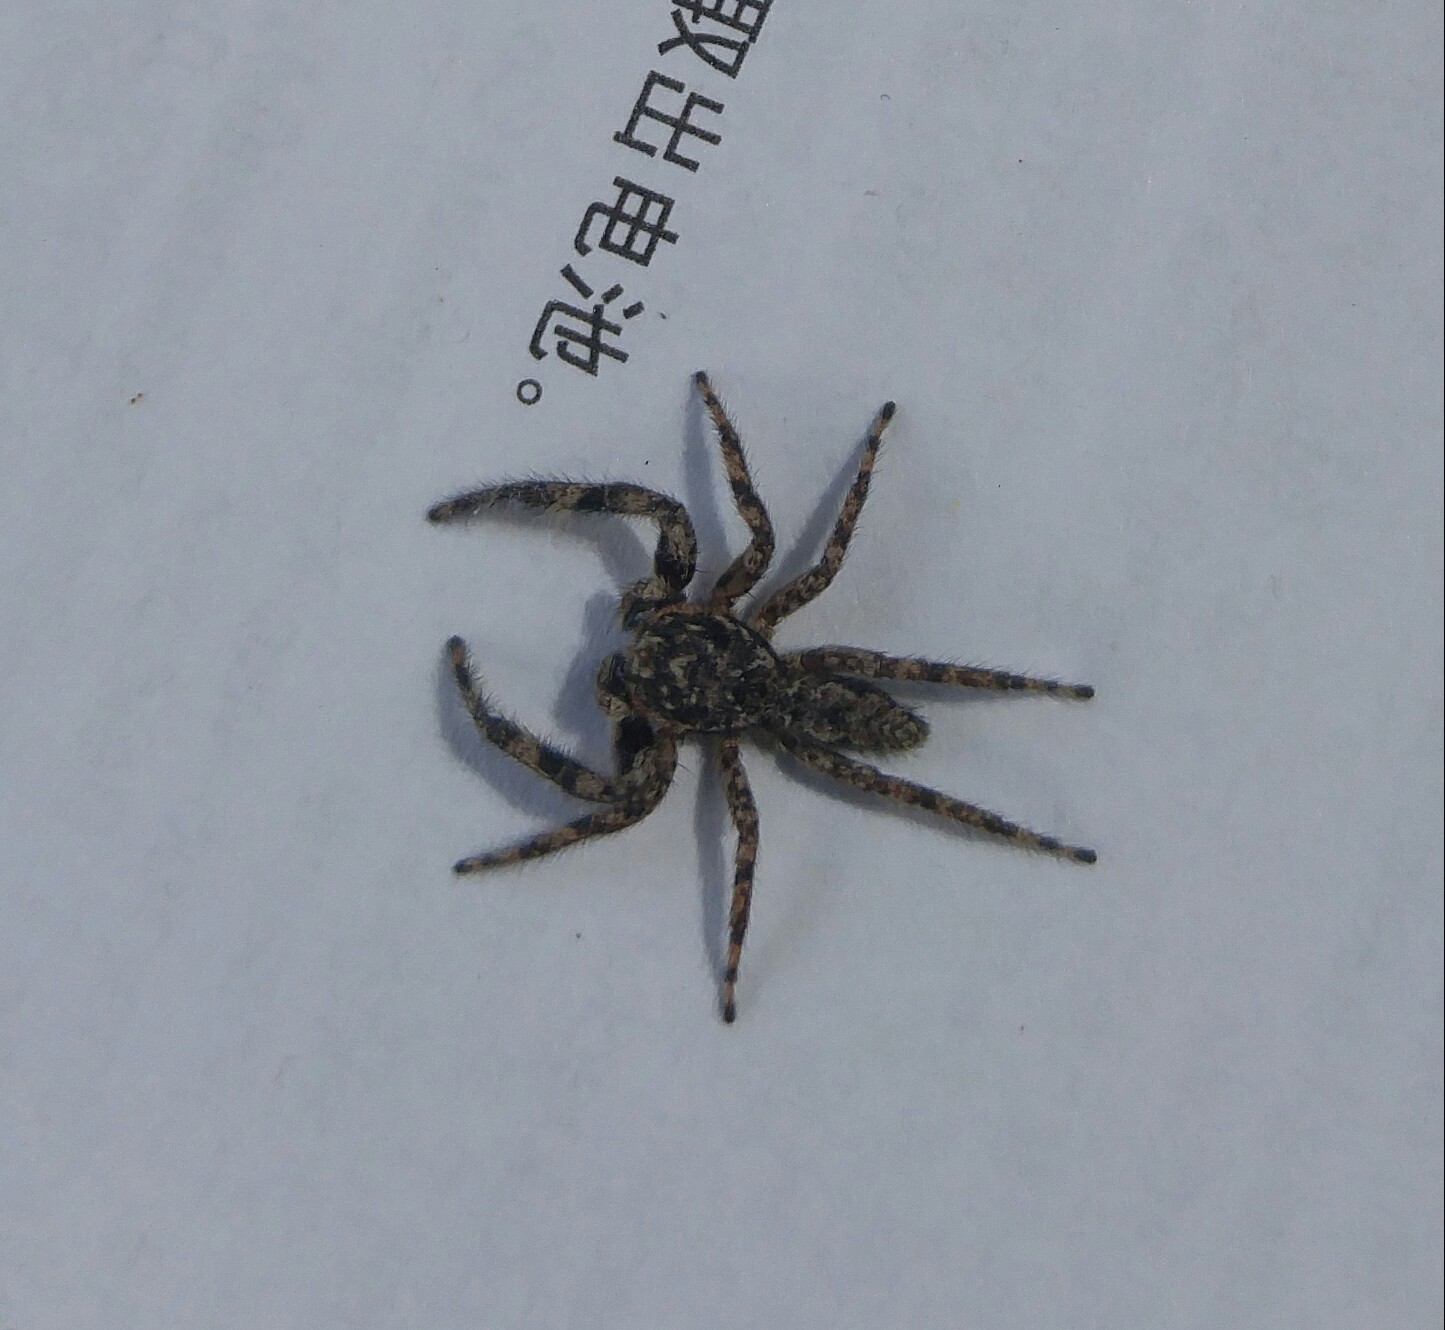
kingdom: Animalia
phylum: Arthropoda
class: Arachnida
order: Araneae
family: Salticidae
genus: Platycryptus
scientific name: Platycryptus undatus
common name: Tan jumping spider
